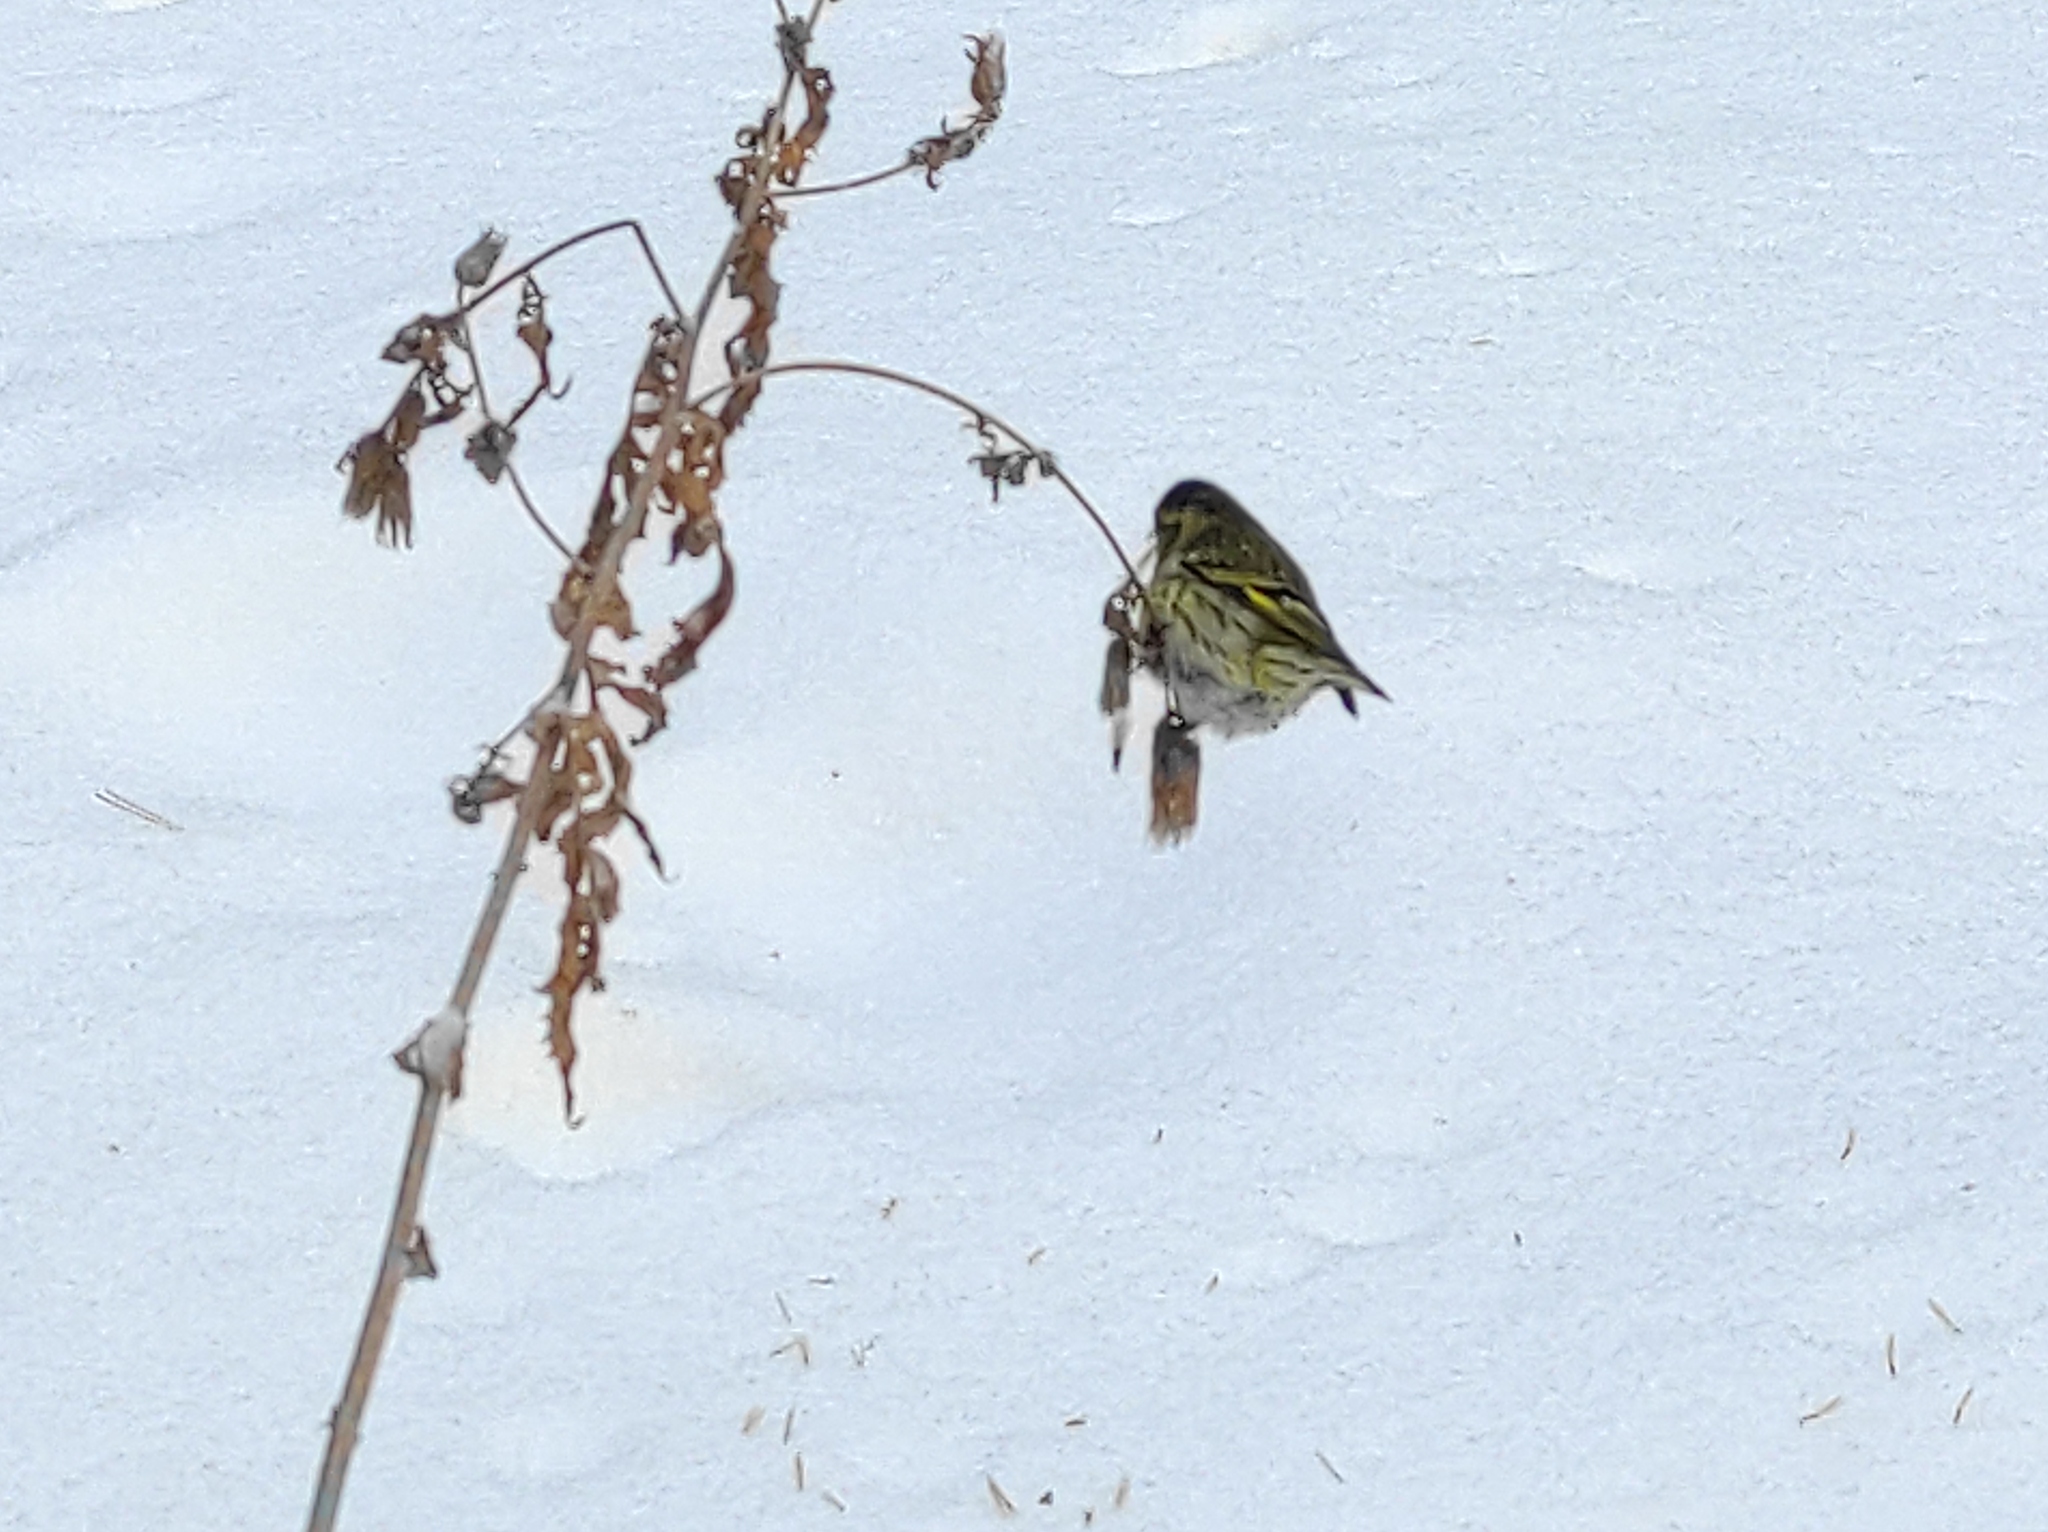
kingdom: Animalia
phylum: Chordata
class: Aves
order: Passeriformes
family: Fringillidae
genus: Spinus
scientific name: Spinus spinus
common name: Eurasian siskin
